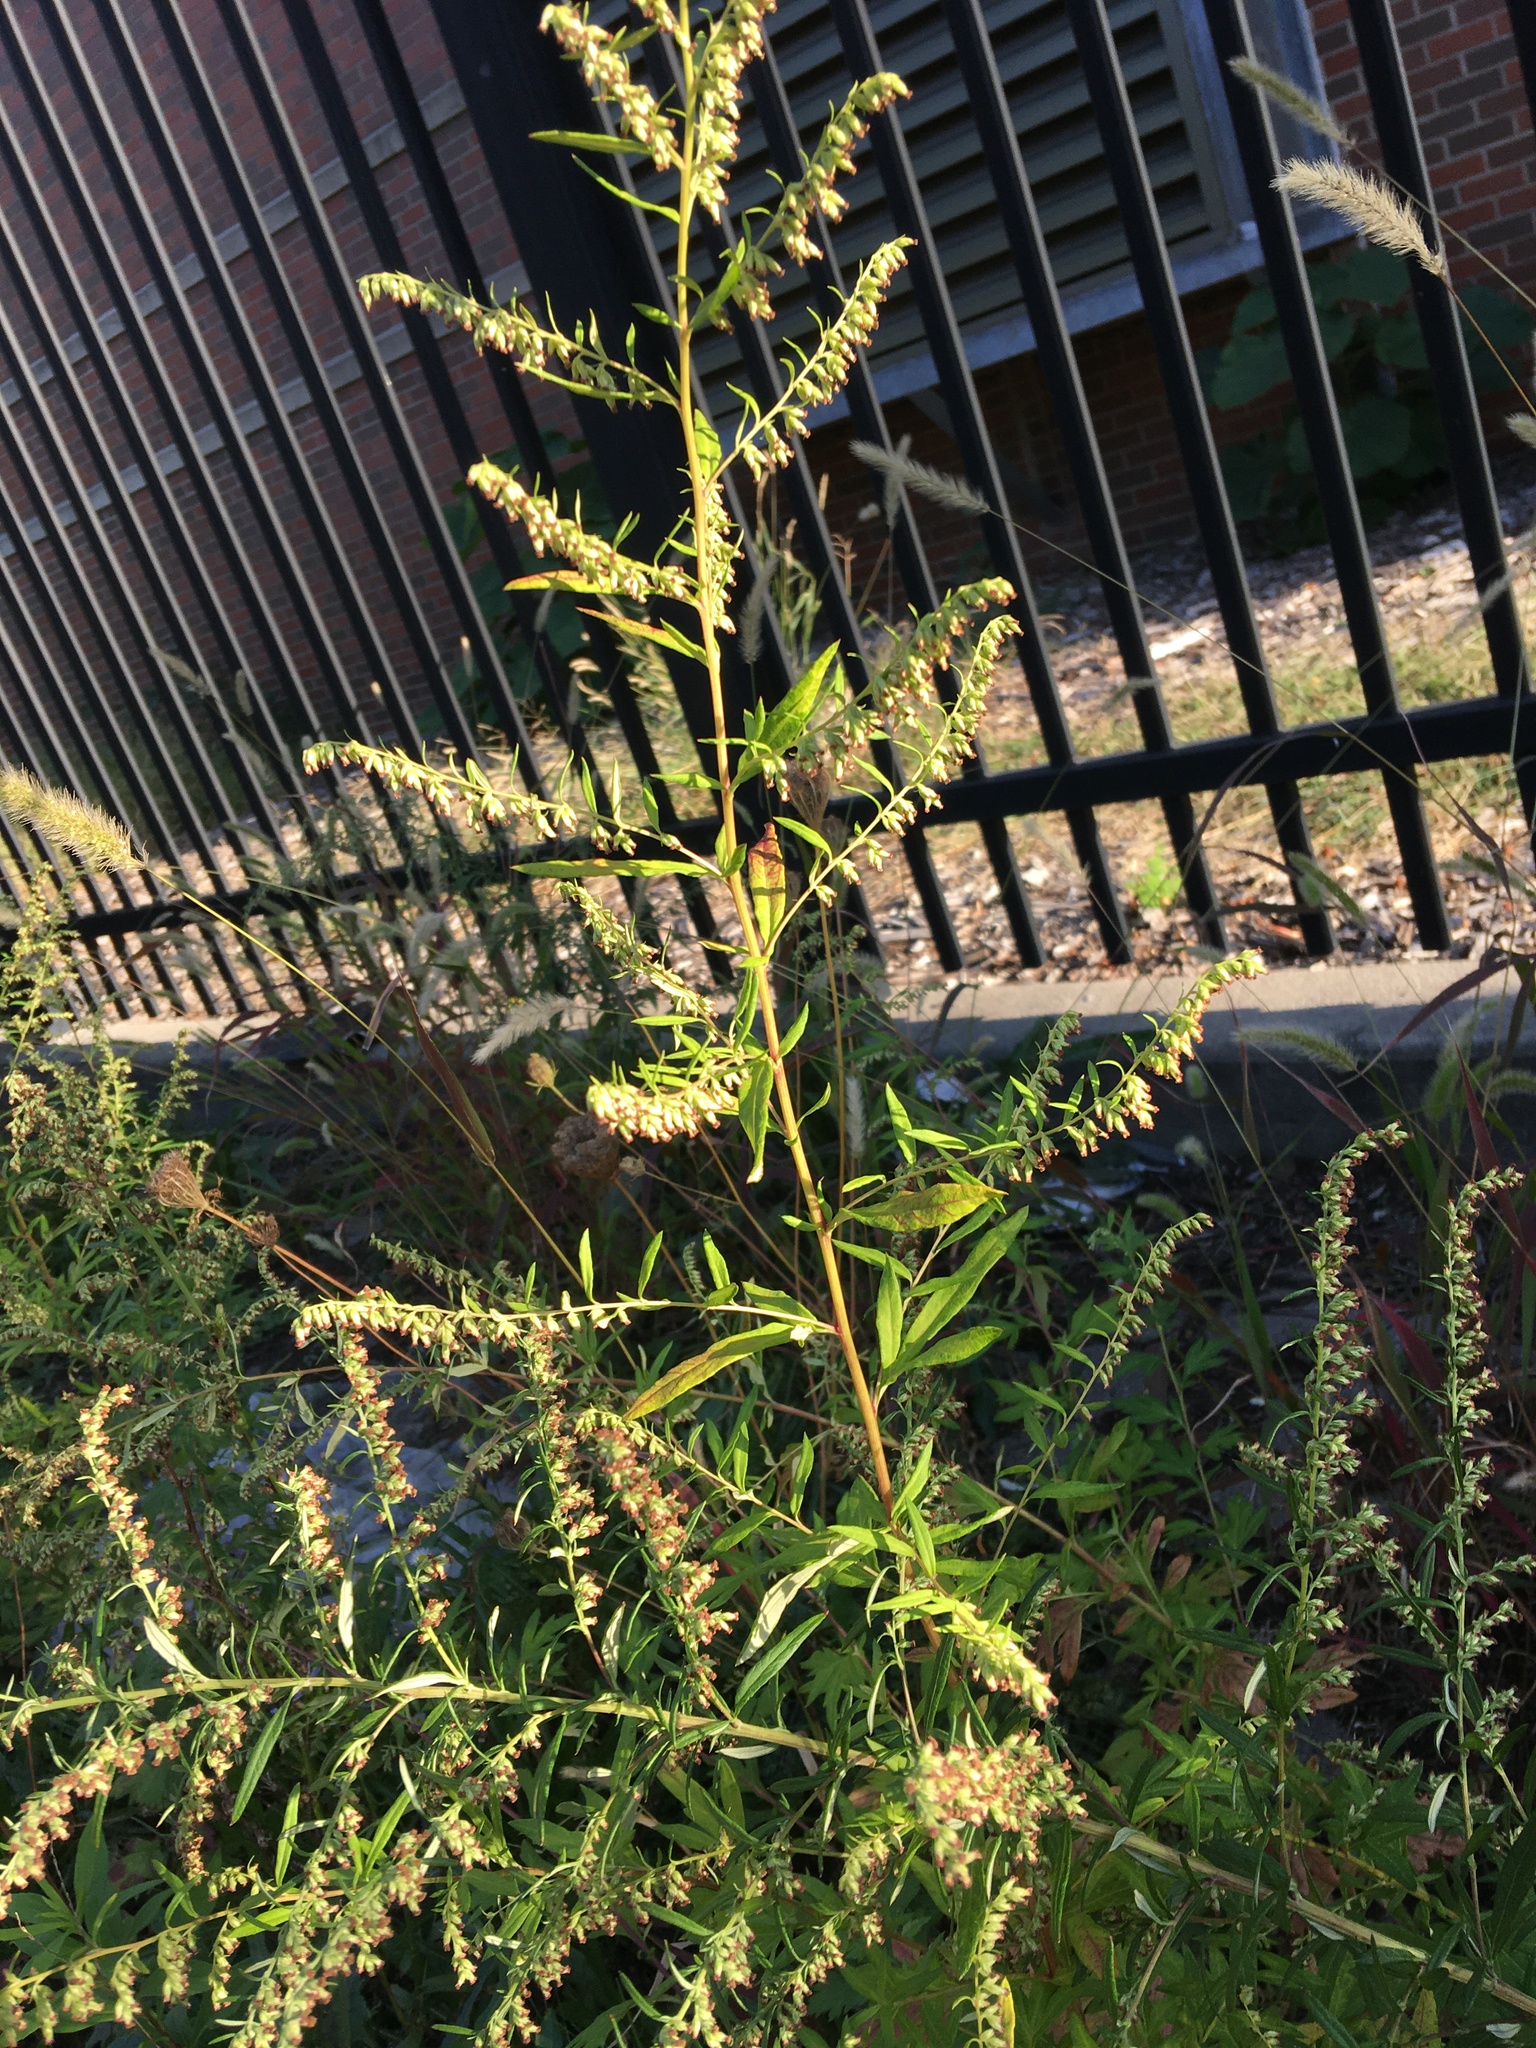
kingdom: Plantae
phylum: Tracheophyta
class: Magnoliopsida
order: Asterales
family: Asteraceae
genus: Artemisia
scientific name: Artemisia vulgaris
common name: Mugwort
